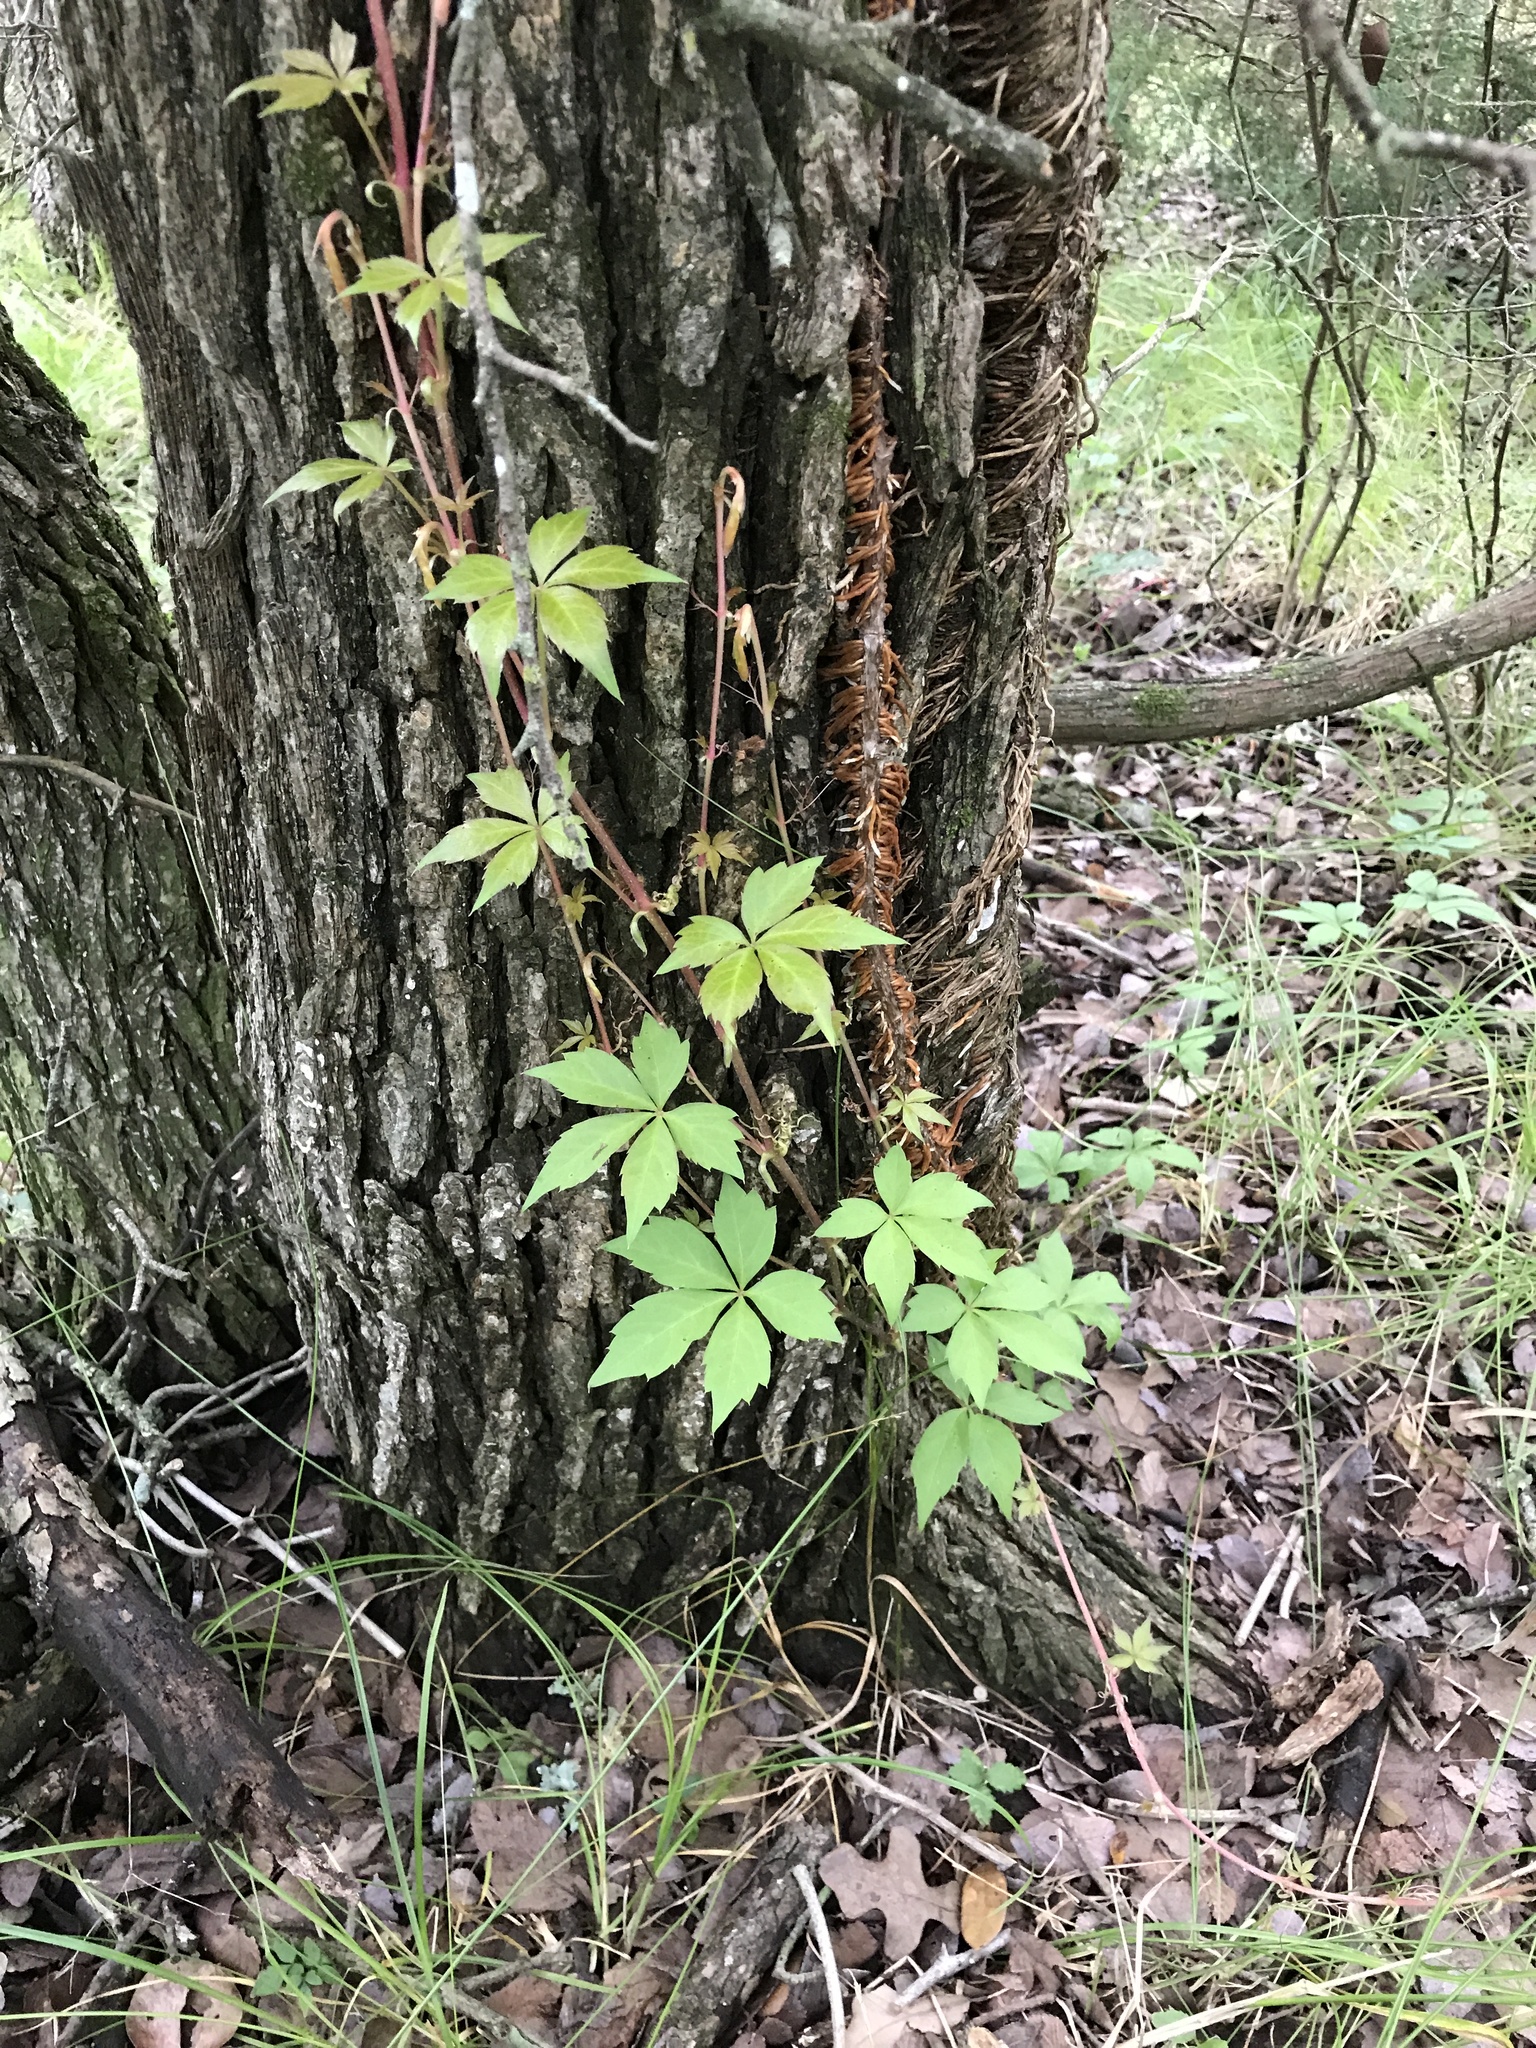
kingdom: Plantae
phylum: Tracheophyta
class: Magnoliopsida
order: Vitales
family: Vitaceae
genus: Parthenocissus
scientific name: Parthenocissus quinquefolia
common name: Virginia-creeper
